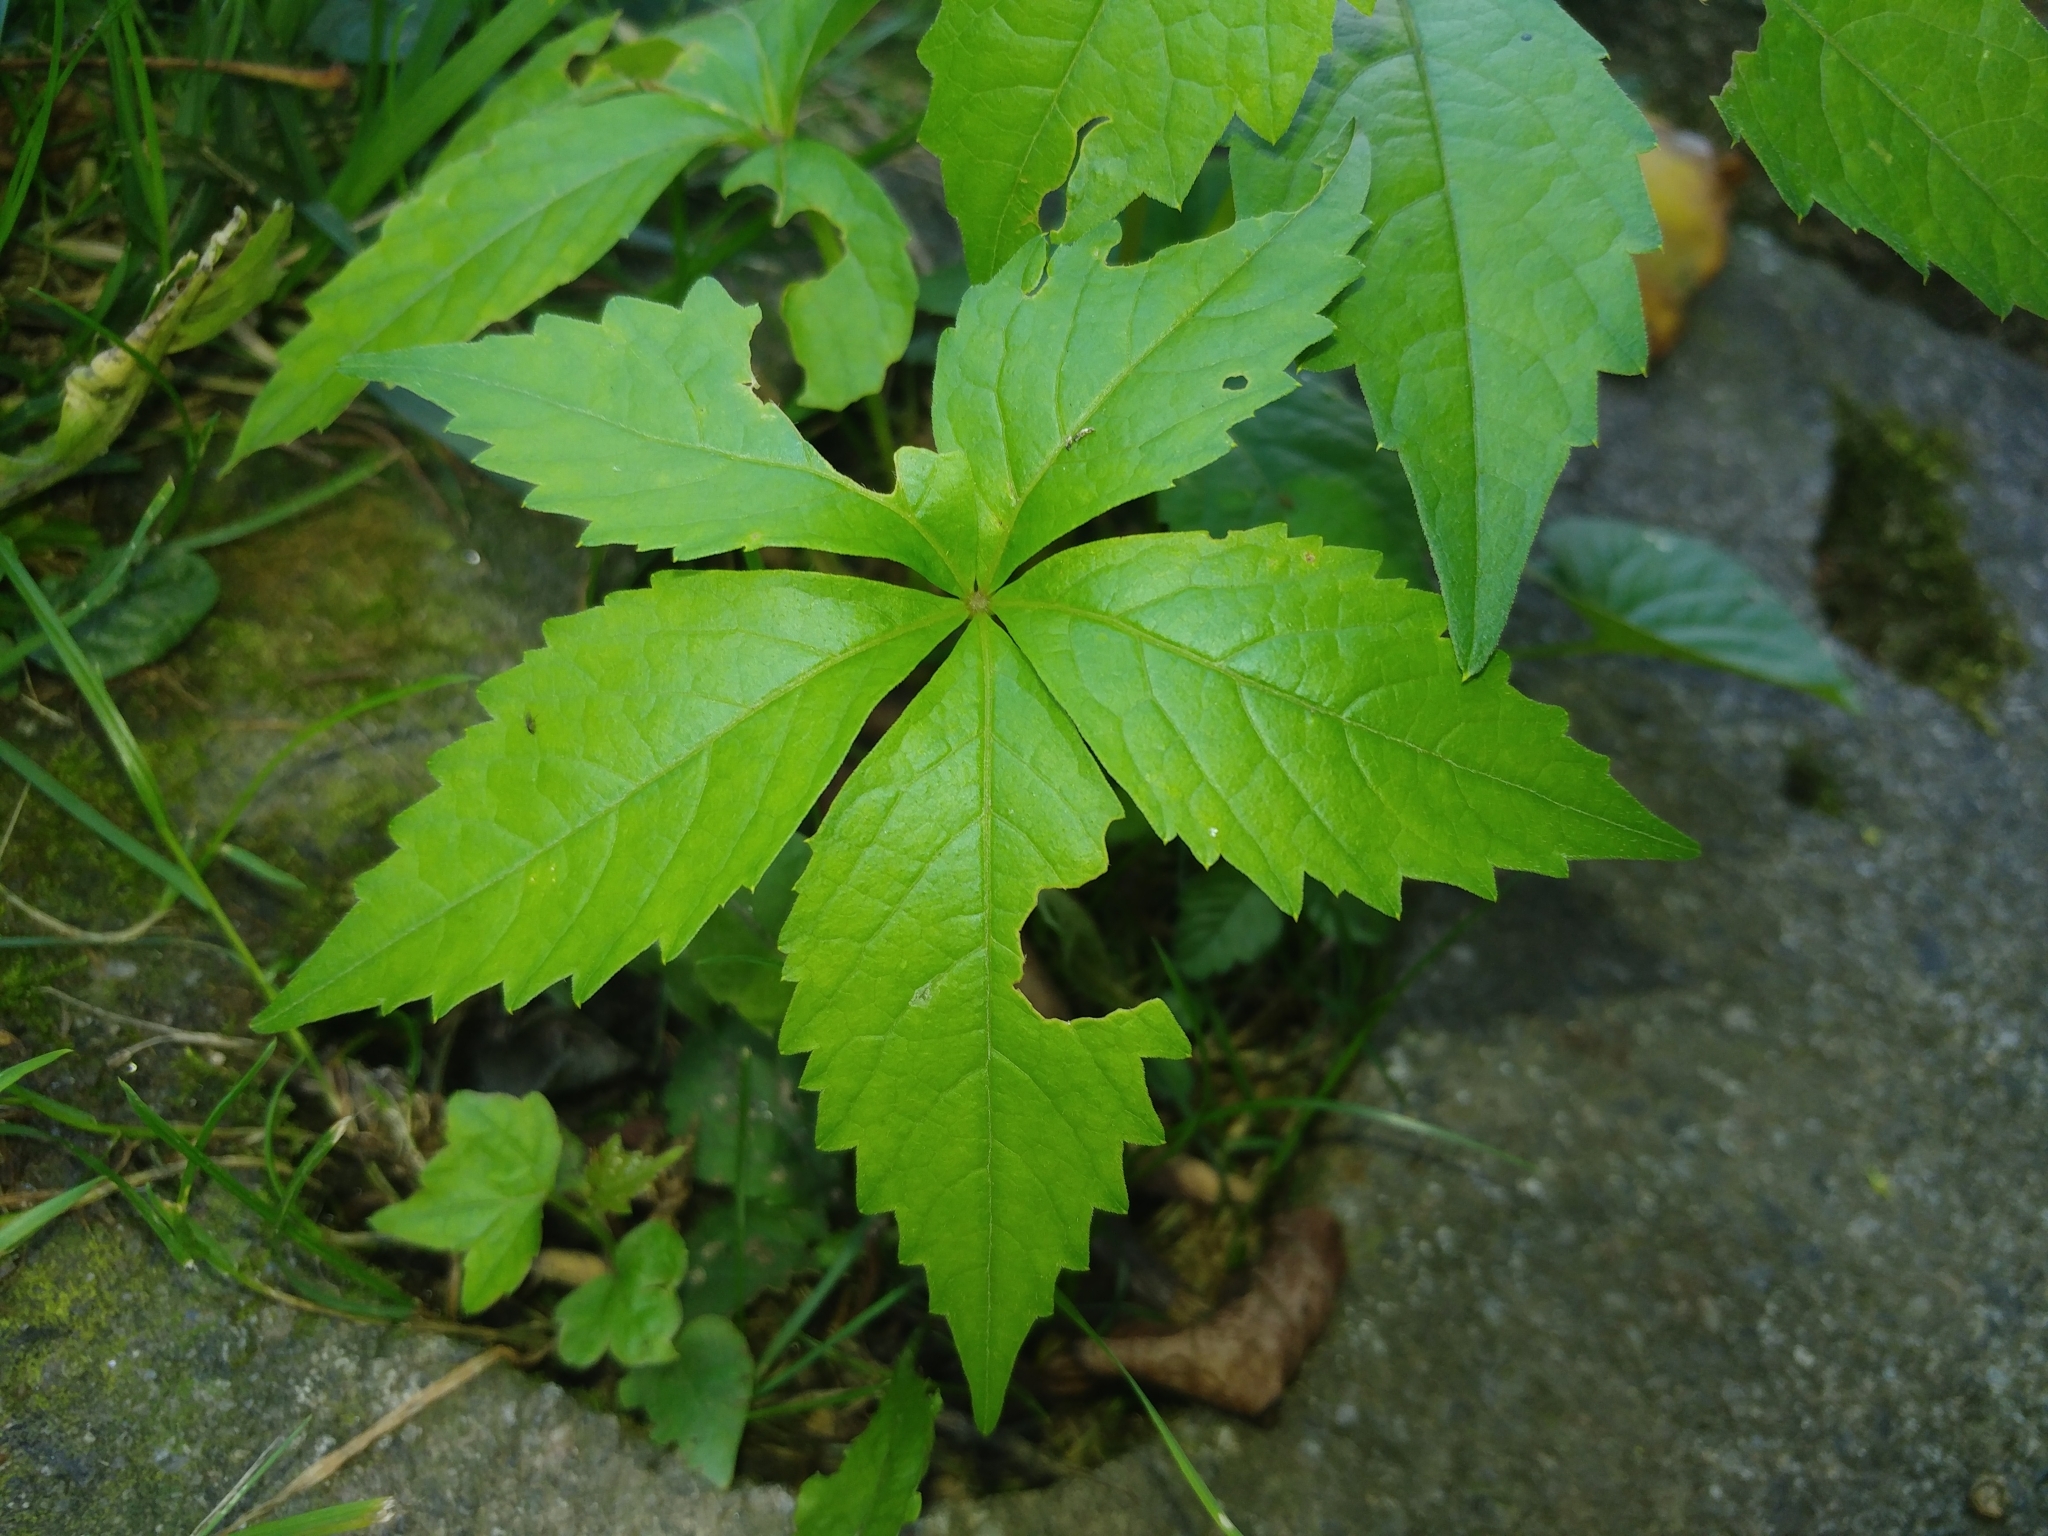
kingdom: Plantae
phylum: Tracheophyta
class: Magnoliopsida
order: Vitales
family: Vitaceae
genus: Parthenocissus
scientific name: Parthenocissus quinquefolia
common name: Virginia-creeper
